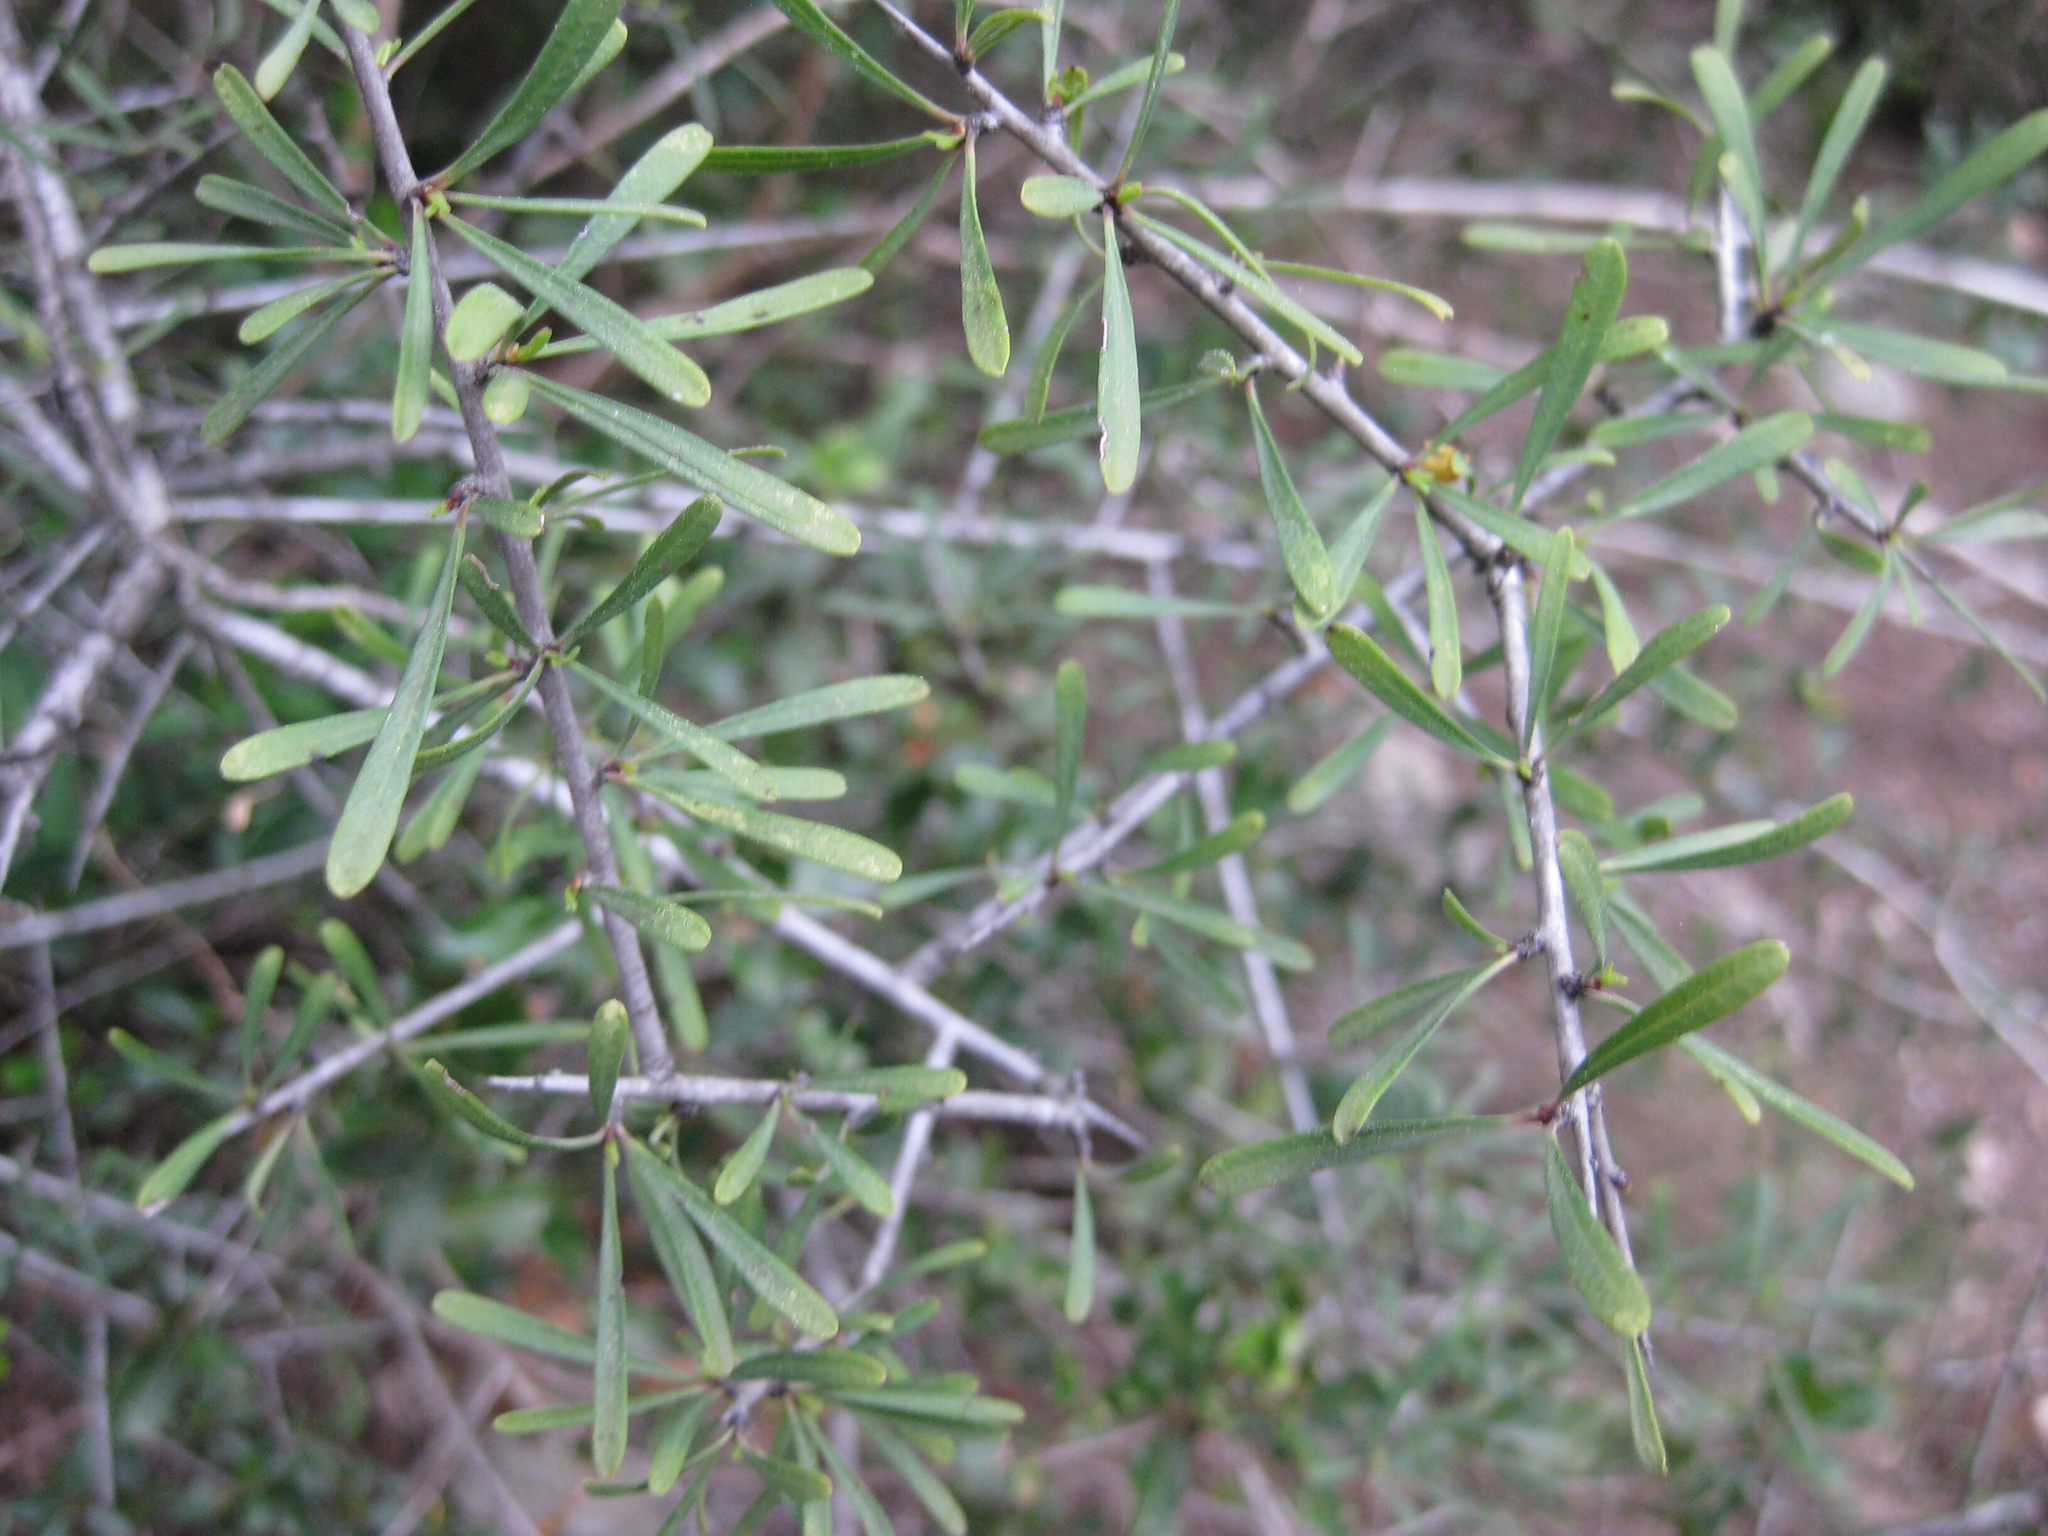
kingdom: Plantae
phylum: Tracheophyta
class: Magnoliopsida
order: Rosales
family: Rhamnaceae
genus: Rhamnus
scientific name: Rhamnus lycioides
